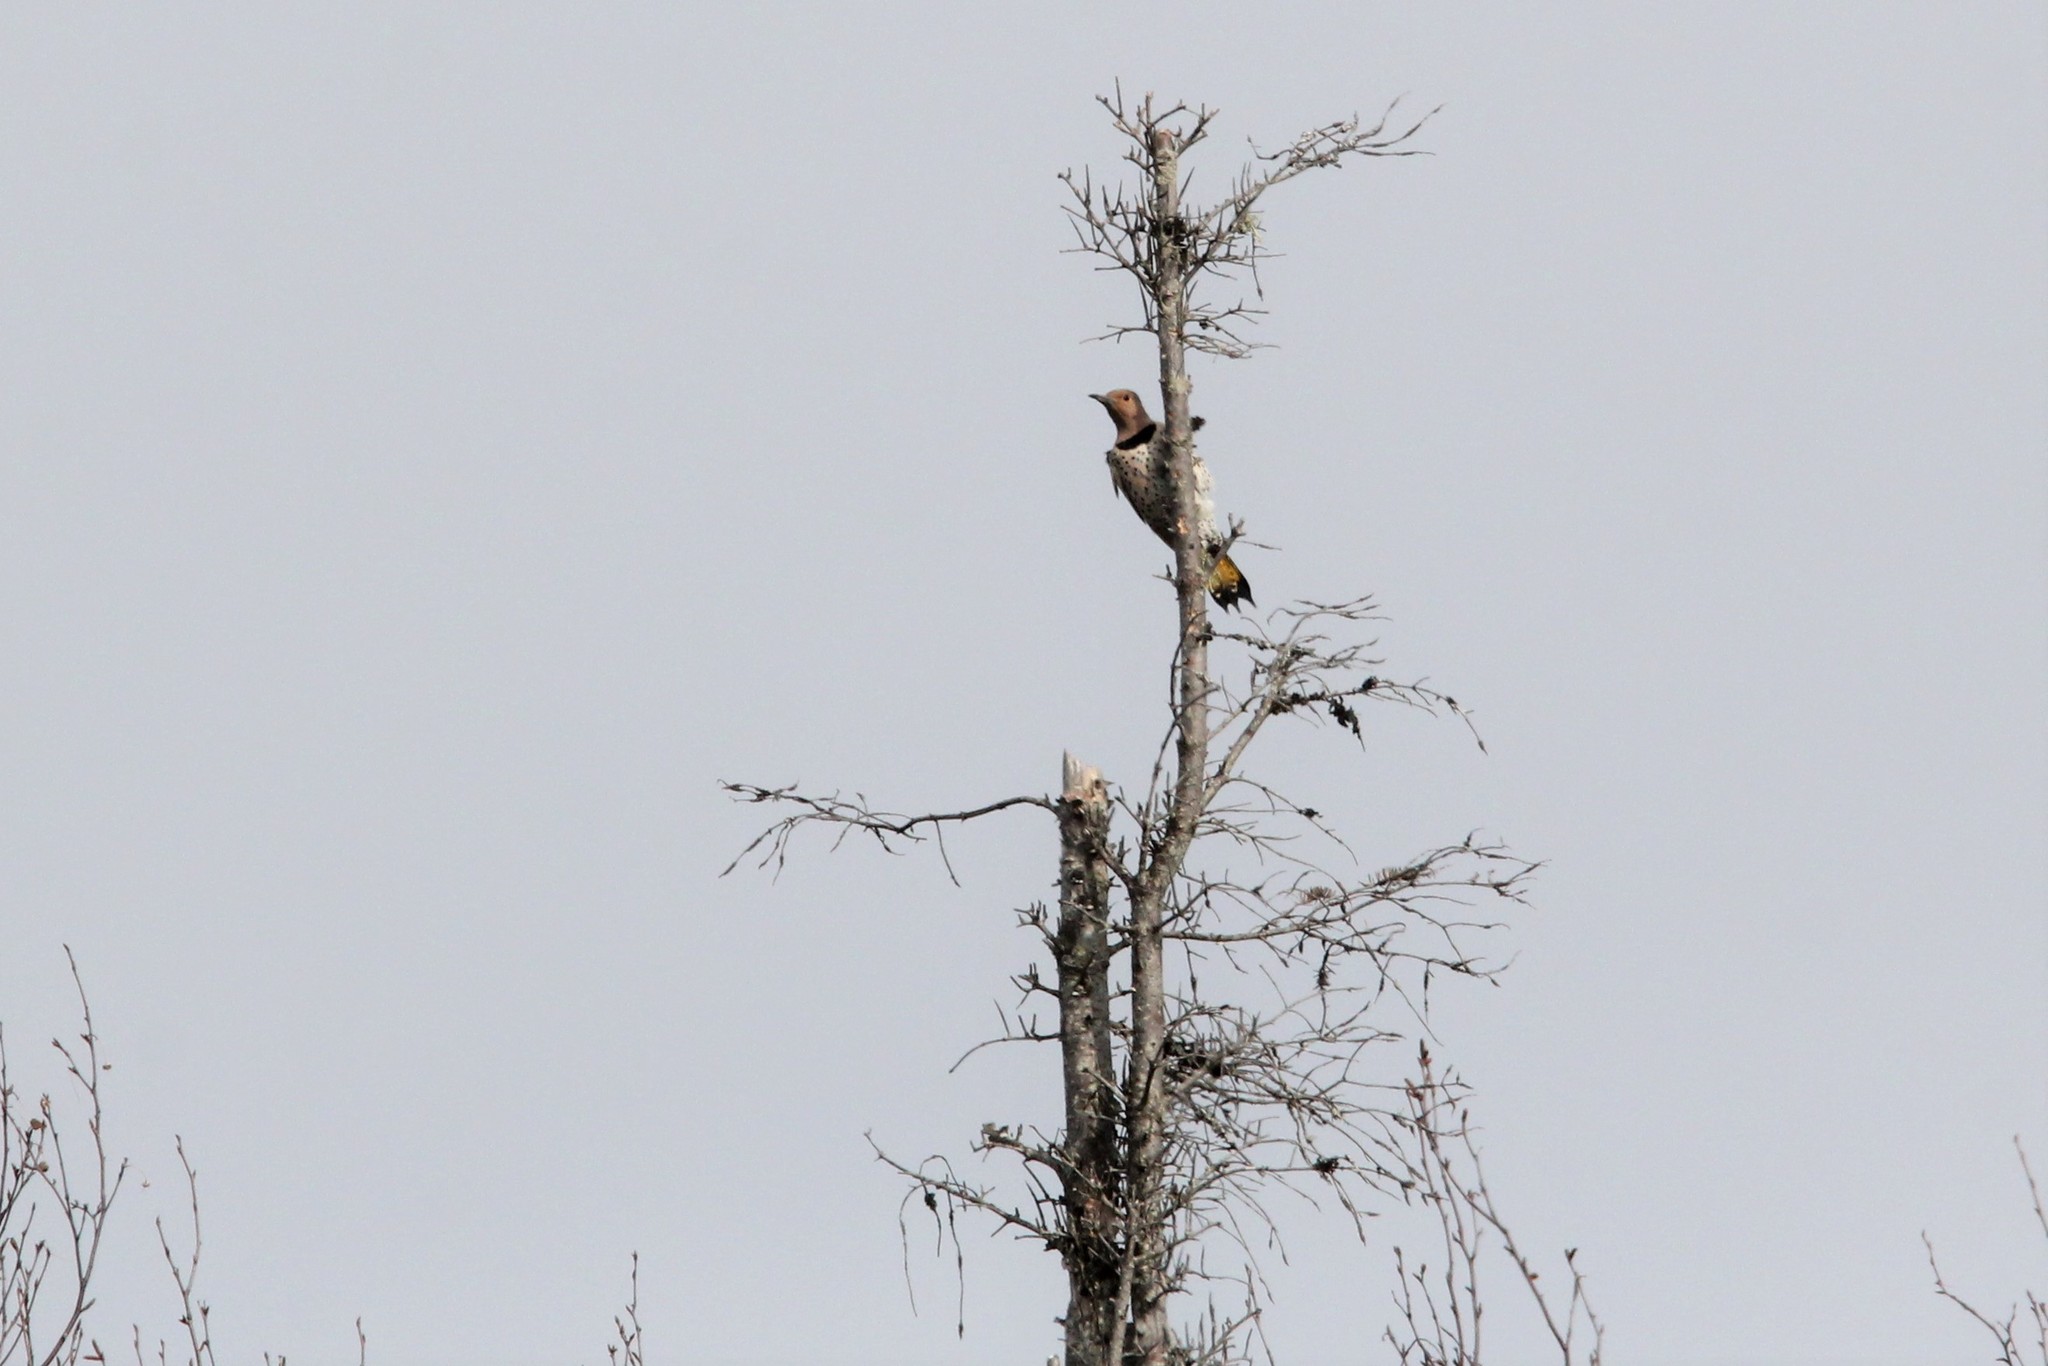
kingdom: Animalia
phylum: Chordata
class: Aves
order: Piciformes
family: Picidae
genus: Colaptes
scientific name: Colaptes auratus
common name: Northern flicker
